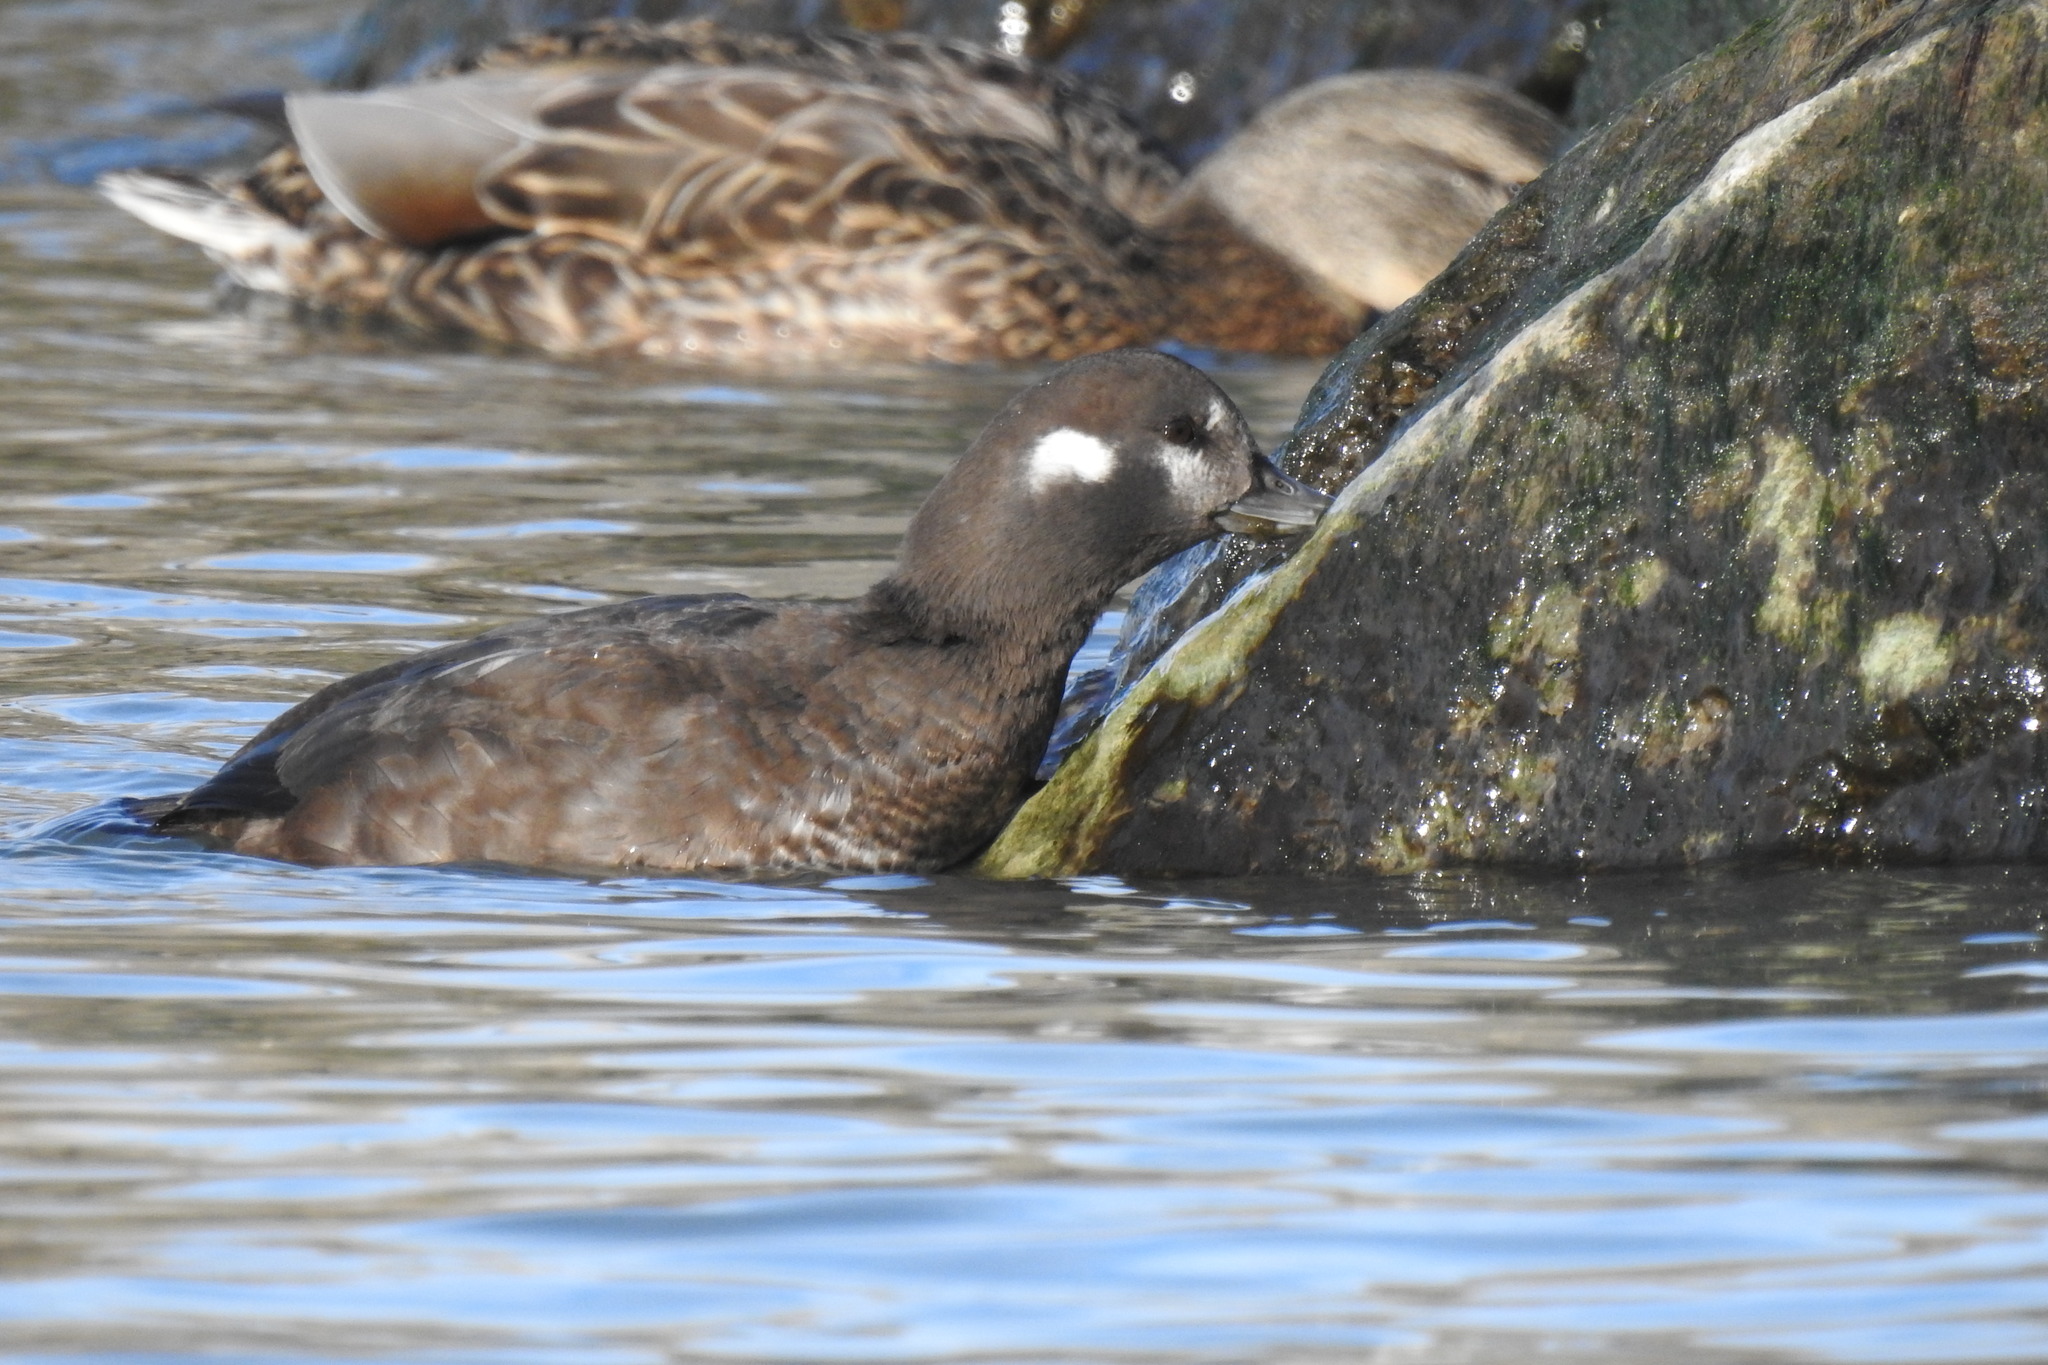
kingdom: Animalia
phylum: Chordata
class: Aves
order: Anseriformes
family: Anatidae
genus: Histrionicus
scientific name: Histrionicus histrionicus
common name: Harlequin duck
